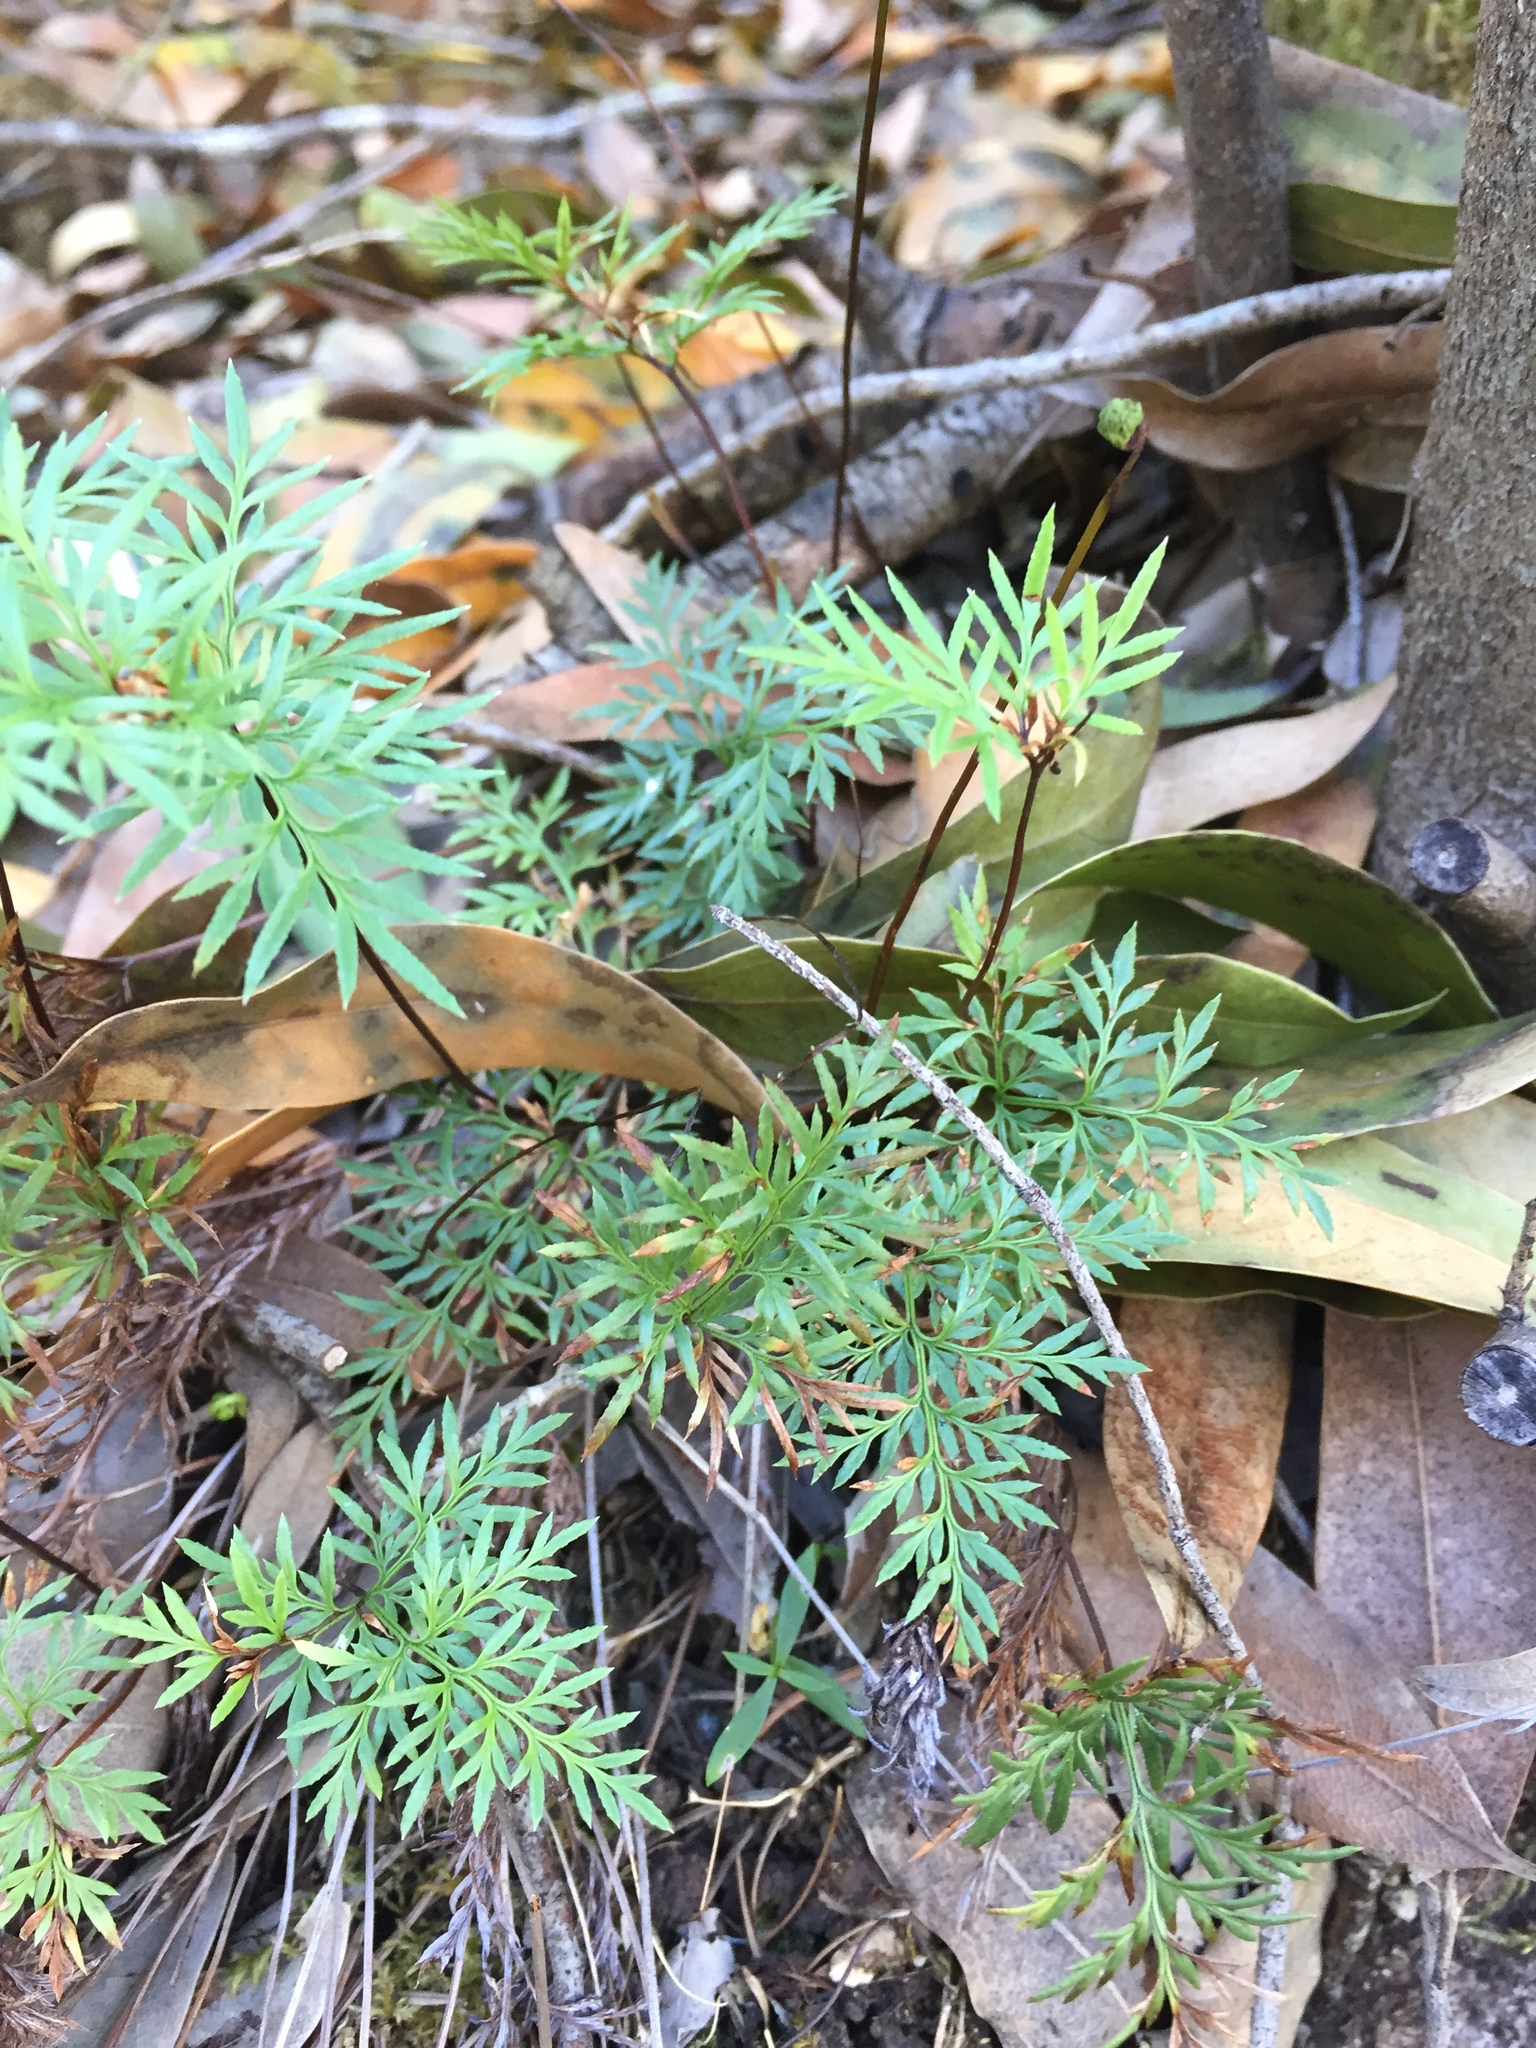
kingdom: Plantae
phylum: Tracheophyta
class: Polypodiopsida
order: Polypodiales
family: Pteridaceae
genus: Aspidotis
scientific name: Aspidotis densa
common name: Indian's dream
